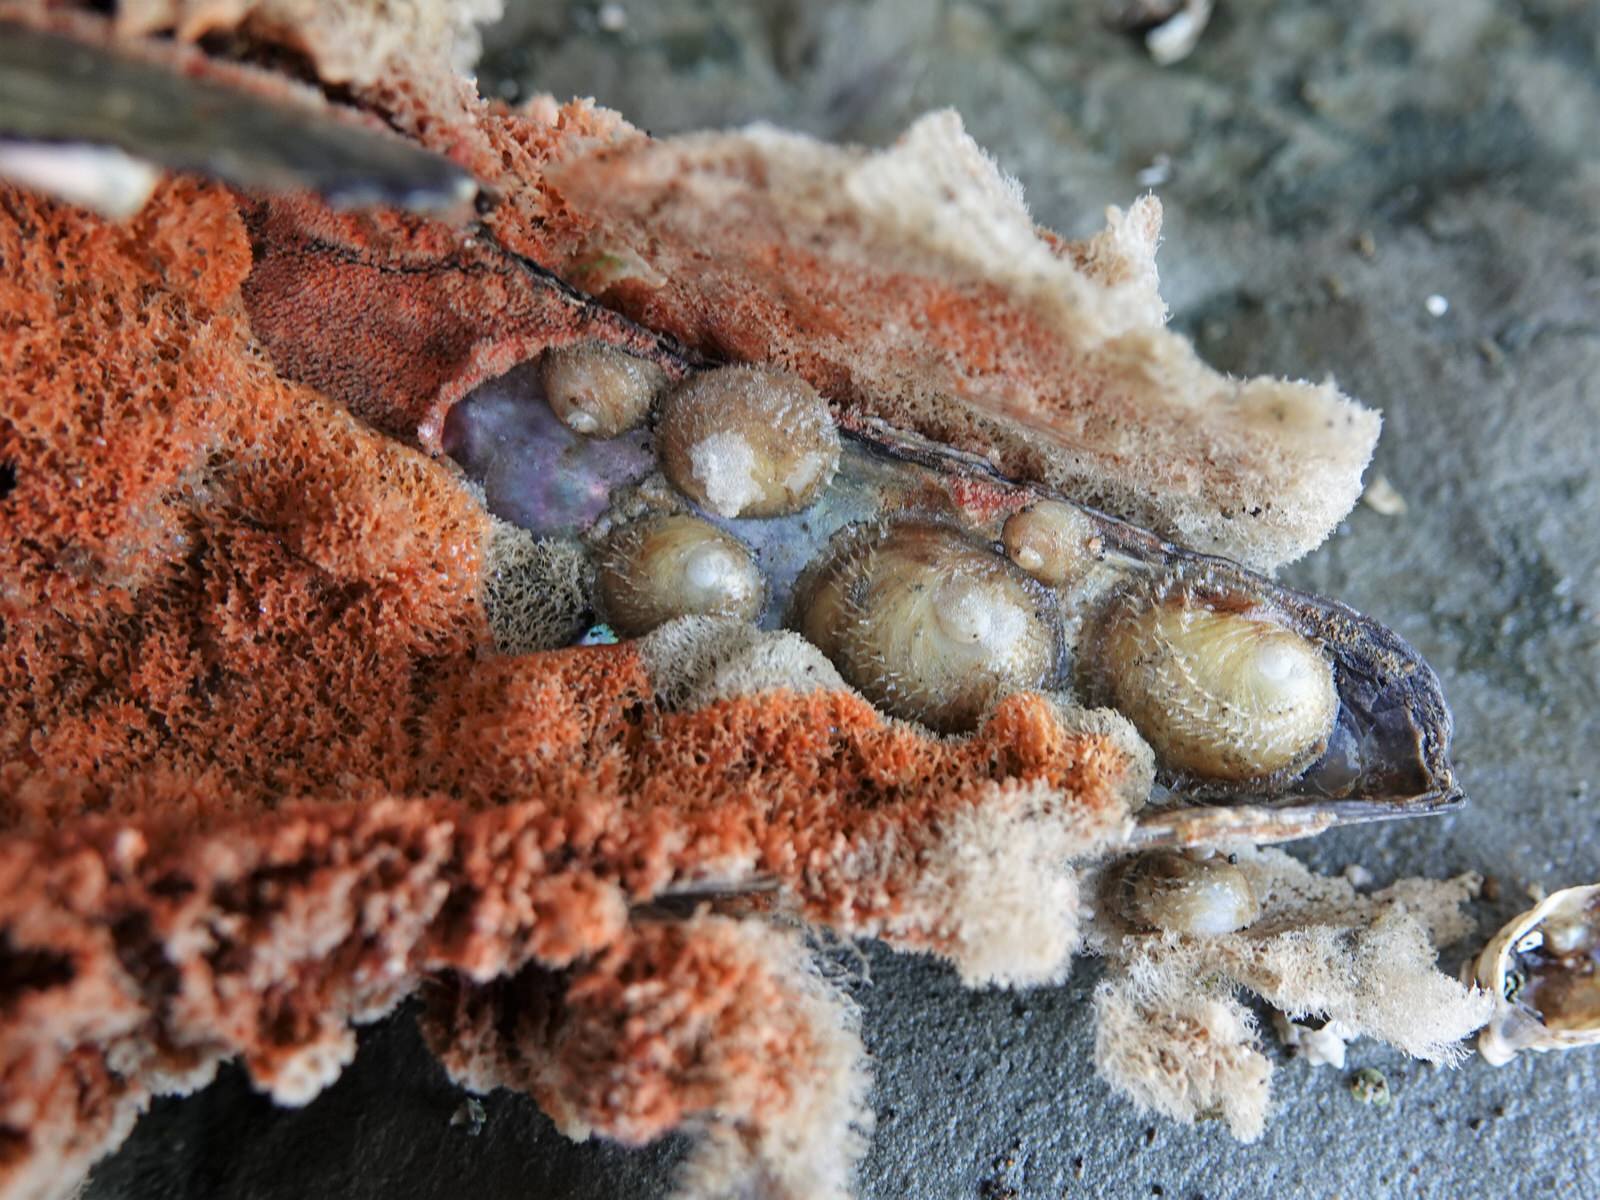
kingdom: Animalia
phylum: Mollusca
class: Gastropoda
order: Littorinimorpha
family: Calyptraeidae
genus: Sigapatella
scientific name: Sigapatella novaezelandiae
